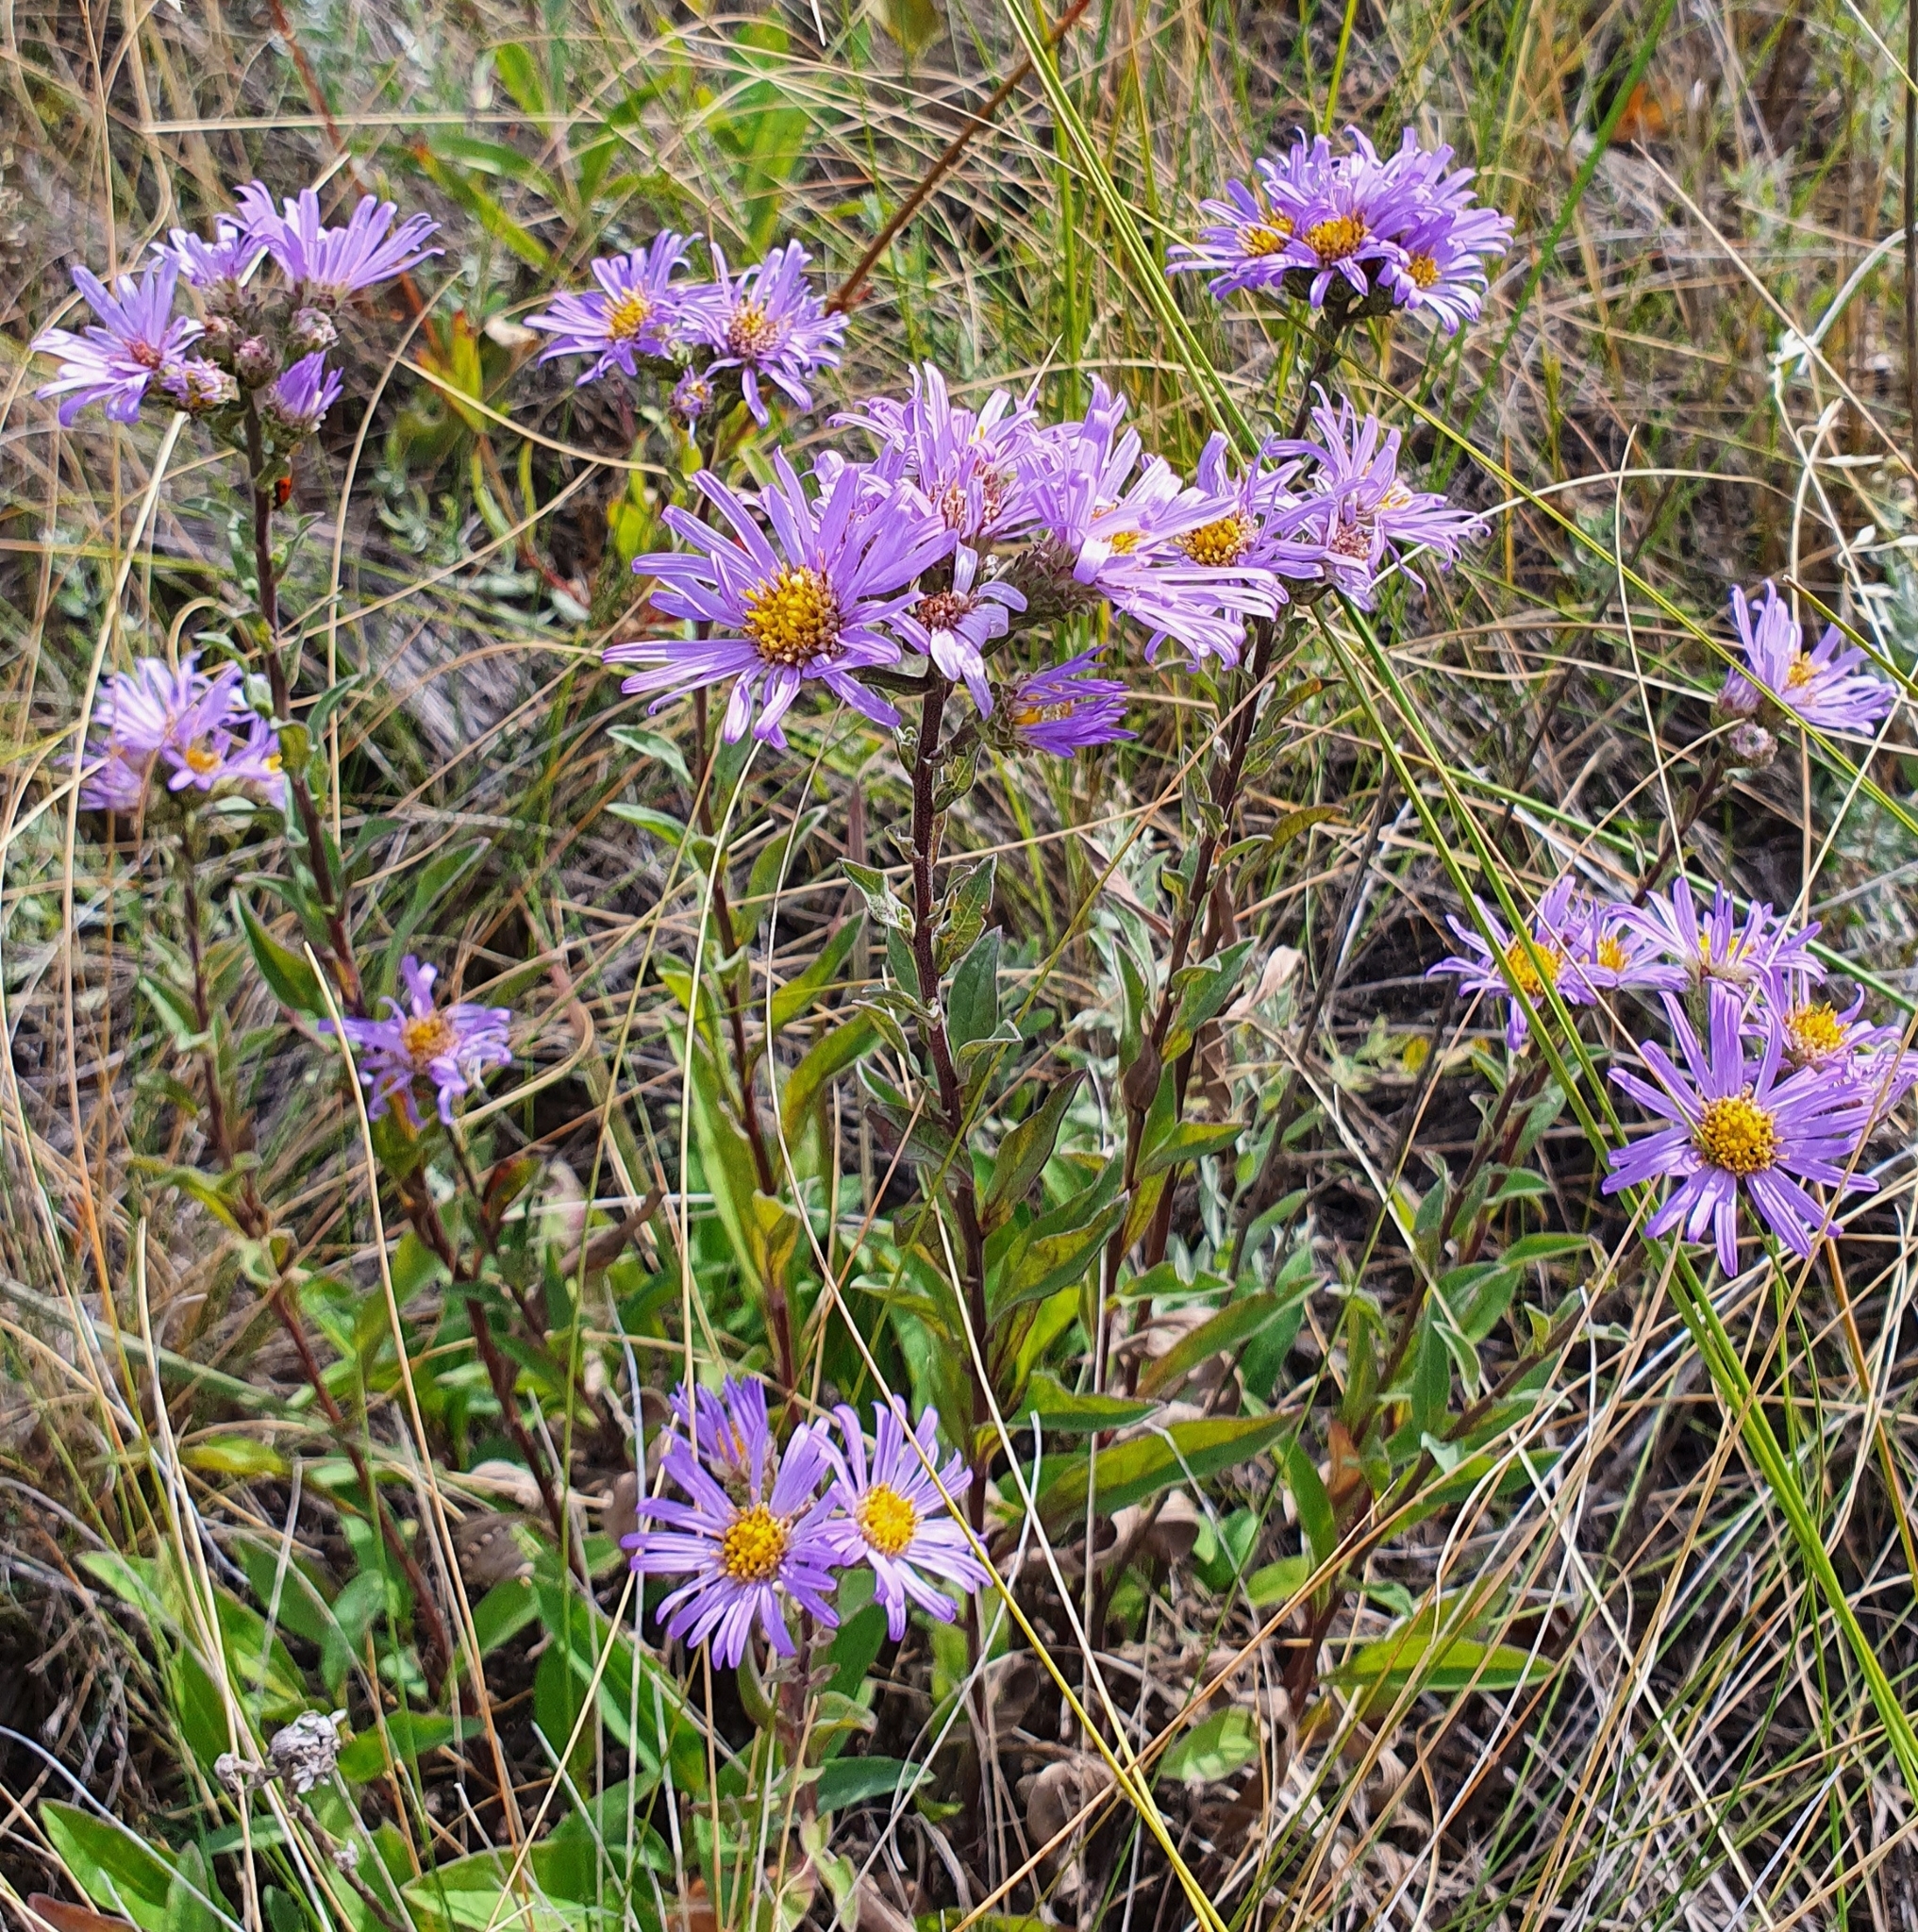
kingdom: Plantae
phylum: Tracheophyta
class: Magnoliopsida
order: Asterales
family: Asteraceae
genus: Aster
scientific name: Aster amellus
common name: European michaelmas daisy
